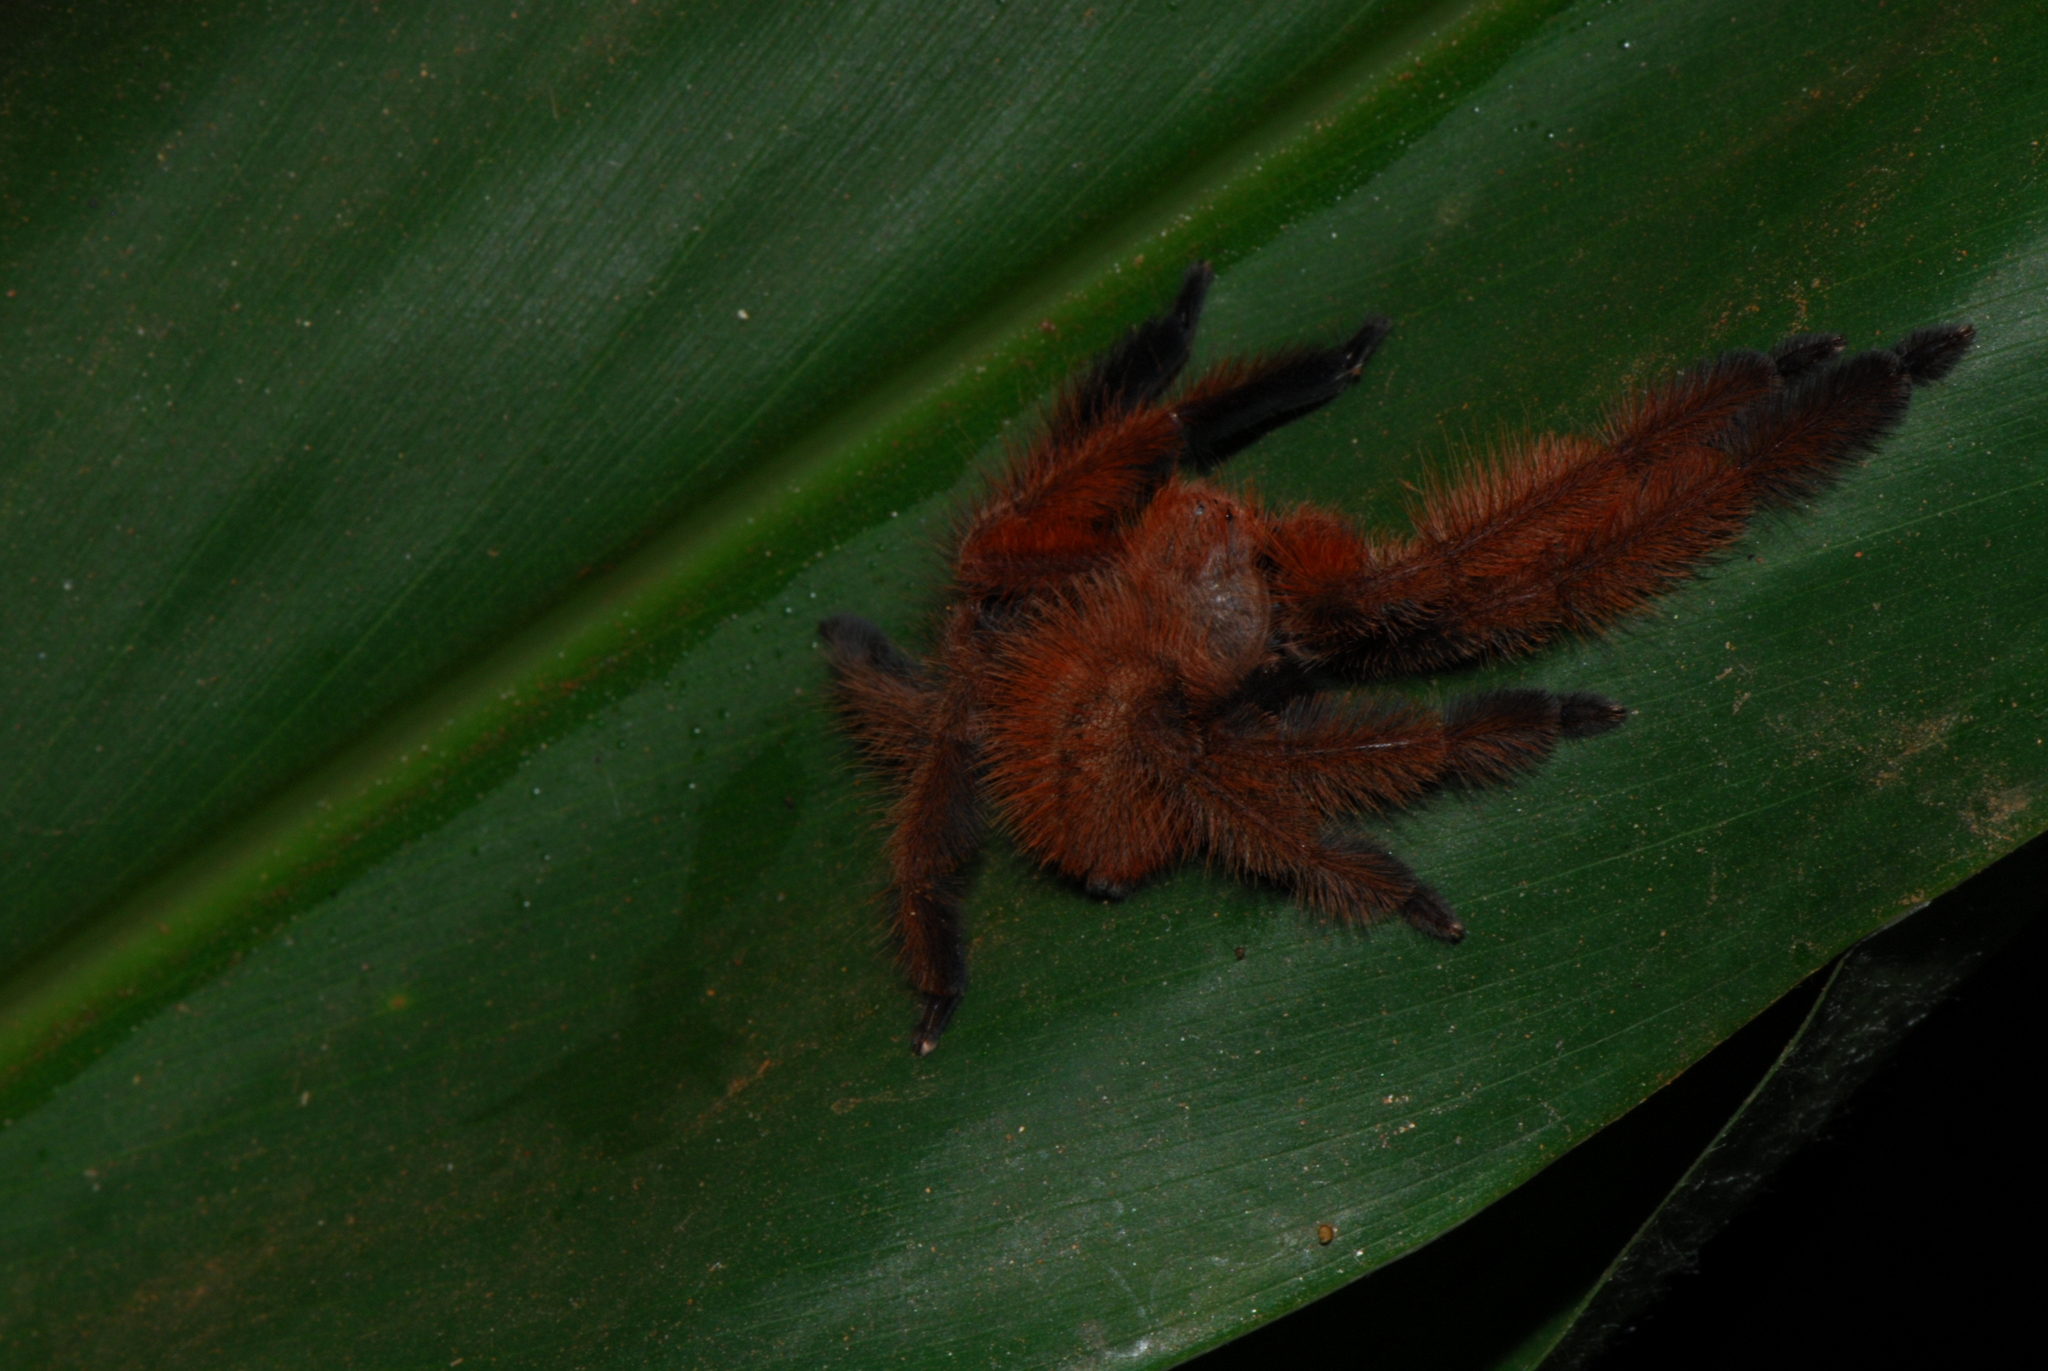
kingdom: Animalia
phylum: Arthropoda
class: Arachnida
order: Araneae
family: Sparassidae
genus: Megaloremmius
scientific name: Megaloremmius leo
